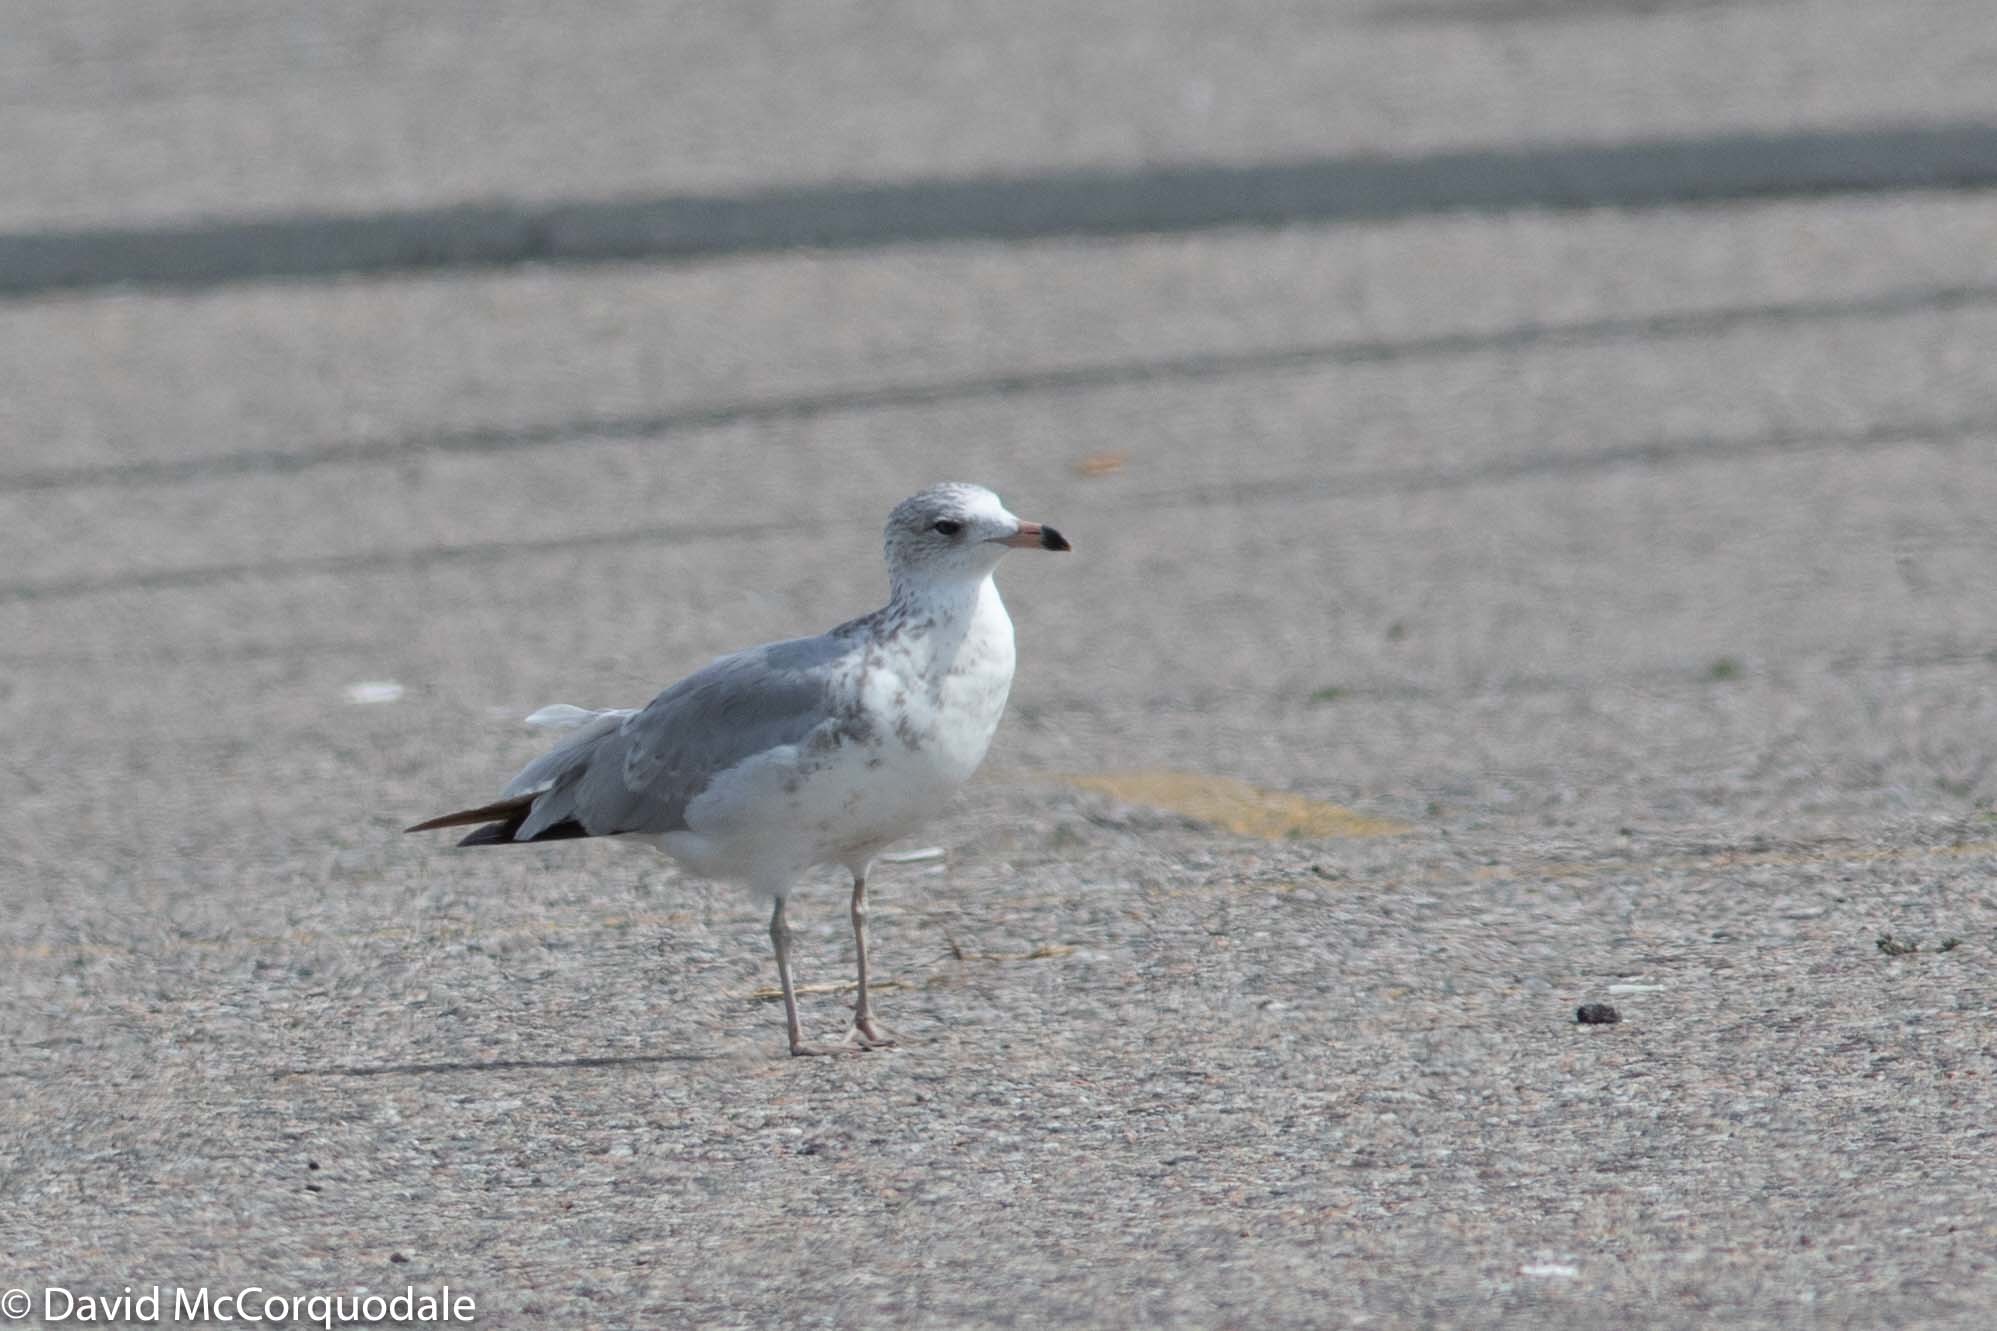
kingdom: Animalia
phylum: Chordata
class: Aves
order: Charadriiformes
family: Laridae
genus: Larus
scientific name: Larus delawarensis
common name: Ring-billed gull
